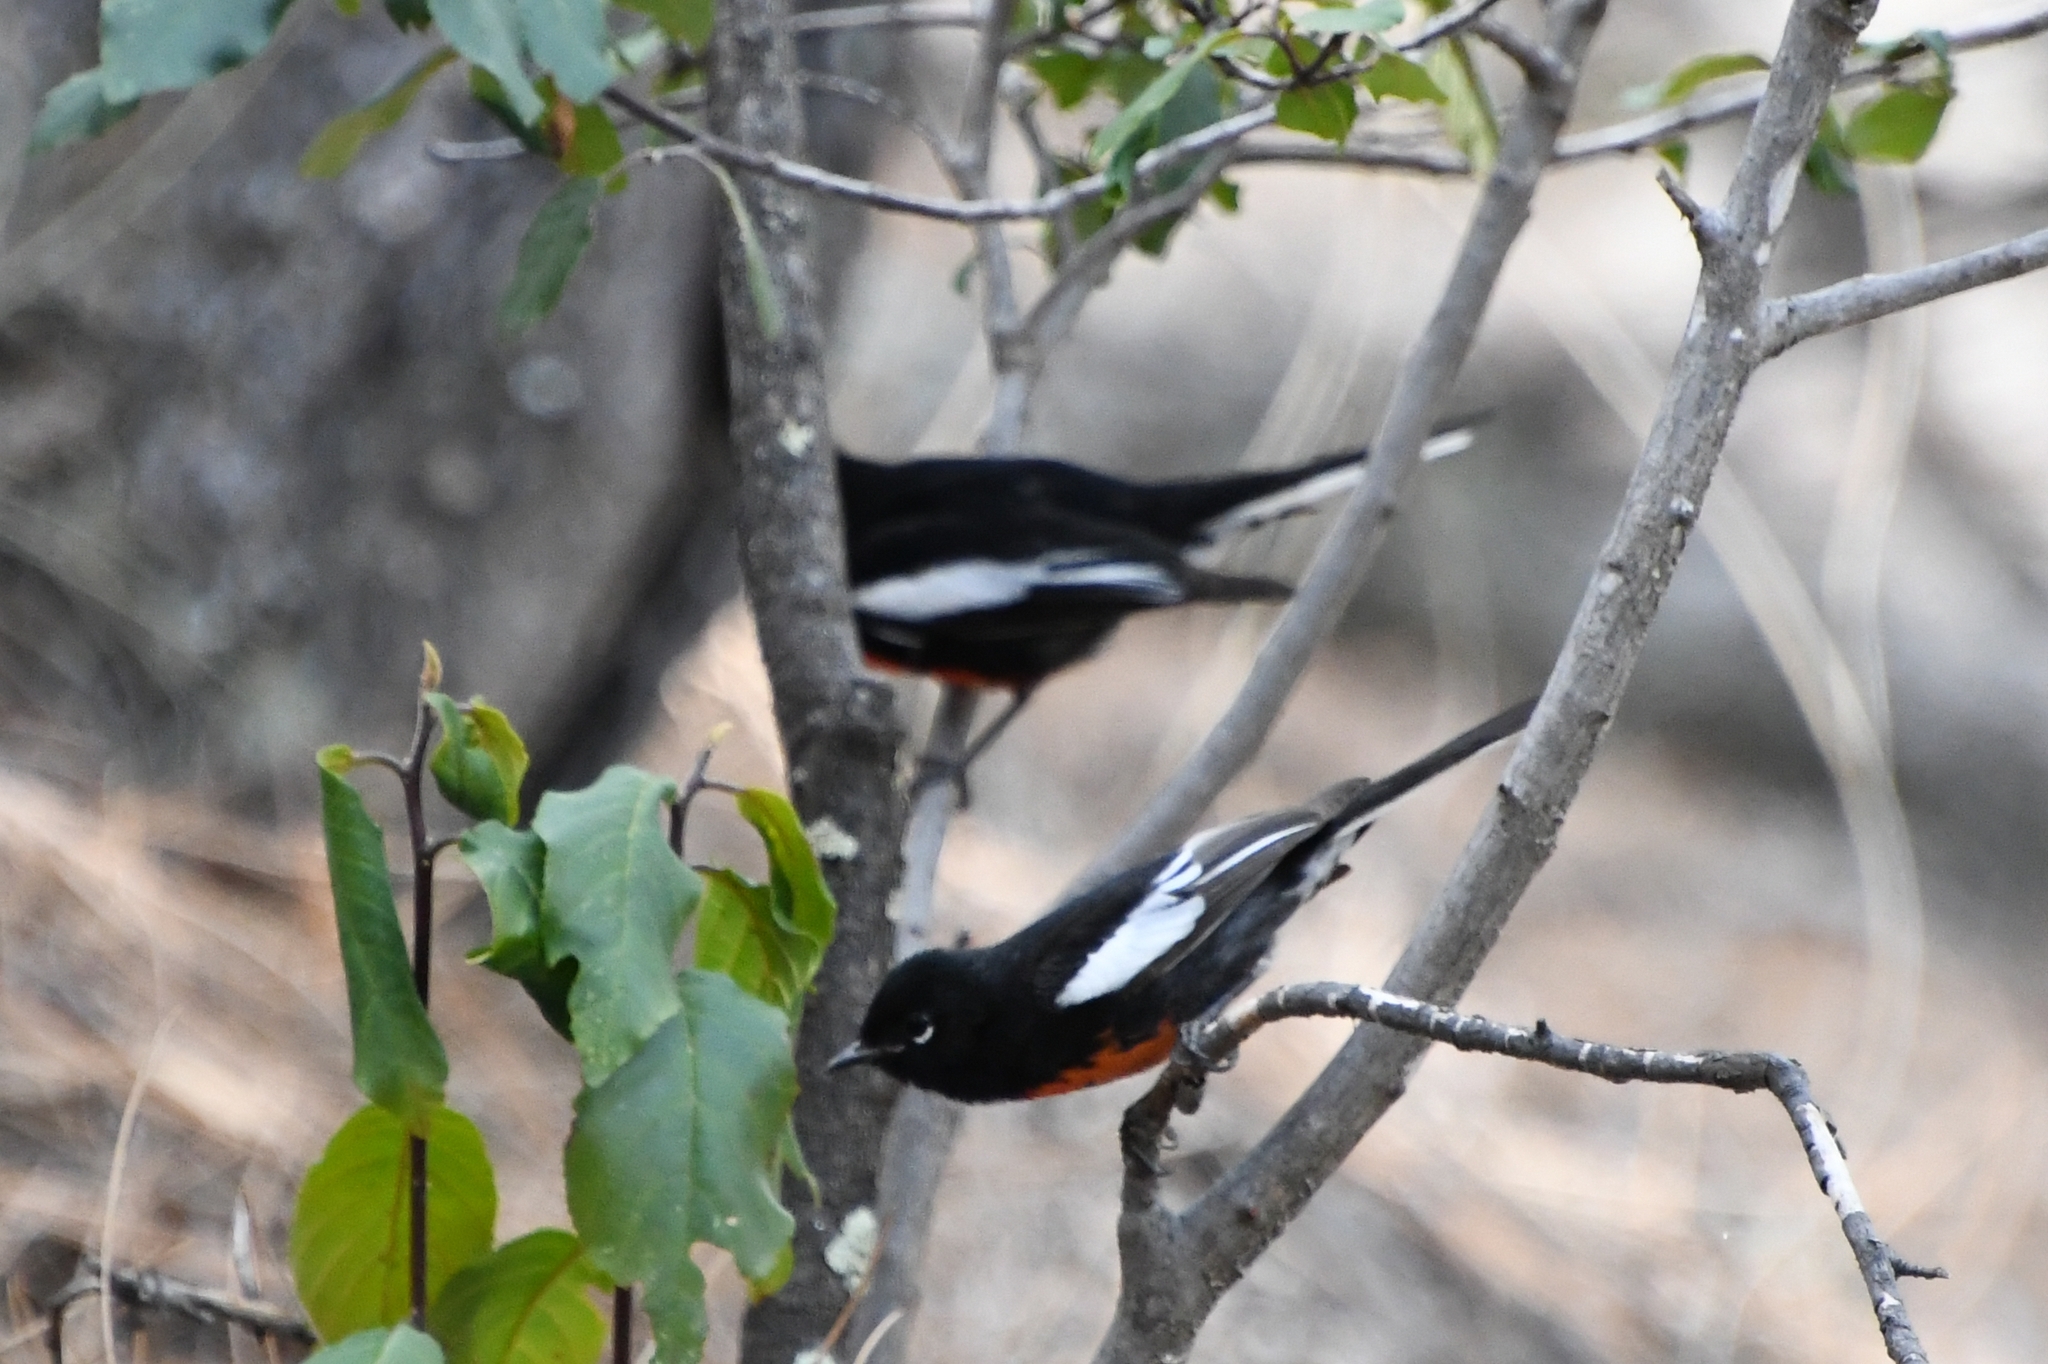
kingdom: Animalia
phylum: Chordata
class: Aves
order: Passeriformes
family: Parulidae
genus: Myioborus
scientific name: Myioborus pictus
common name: Painted whitestart
